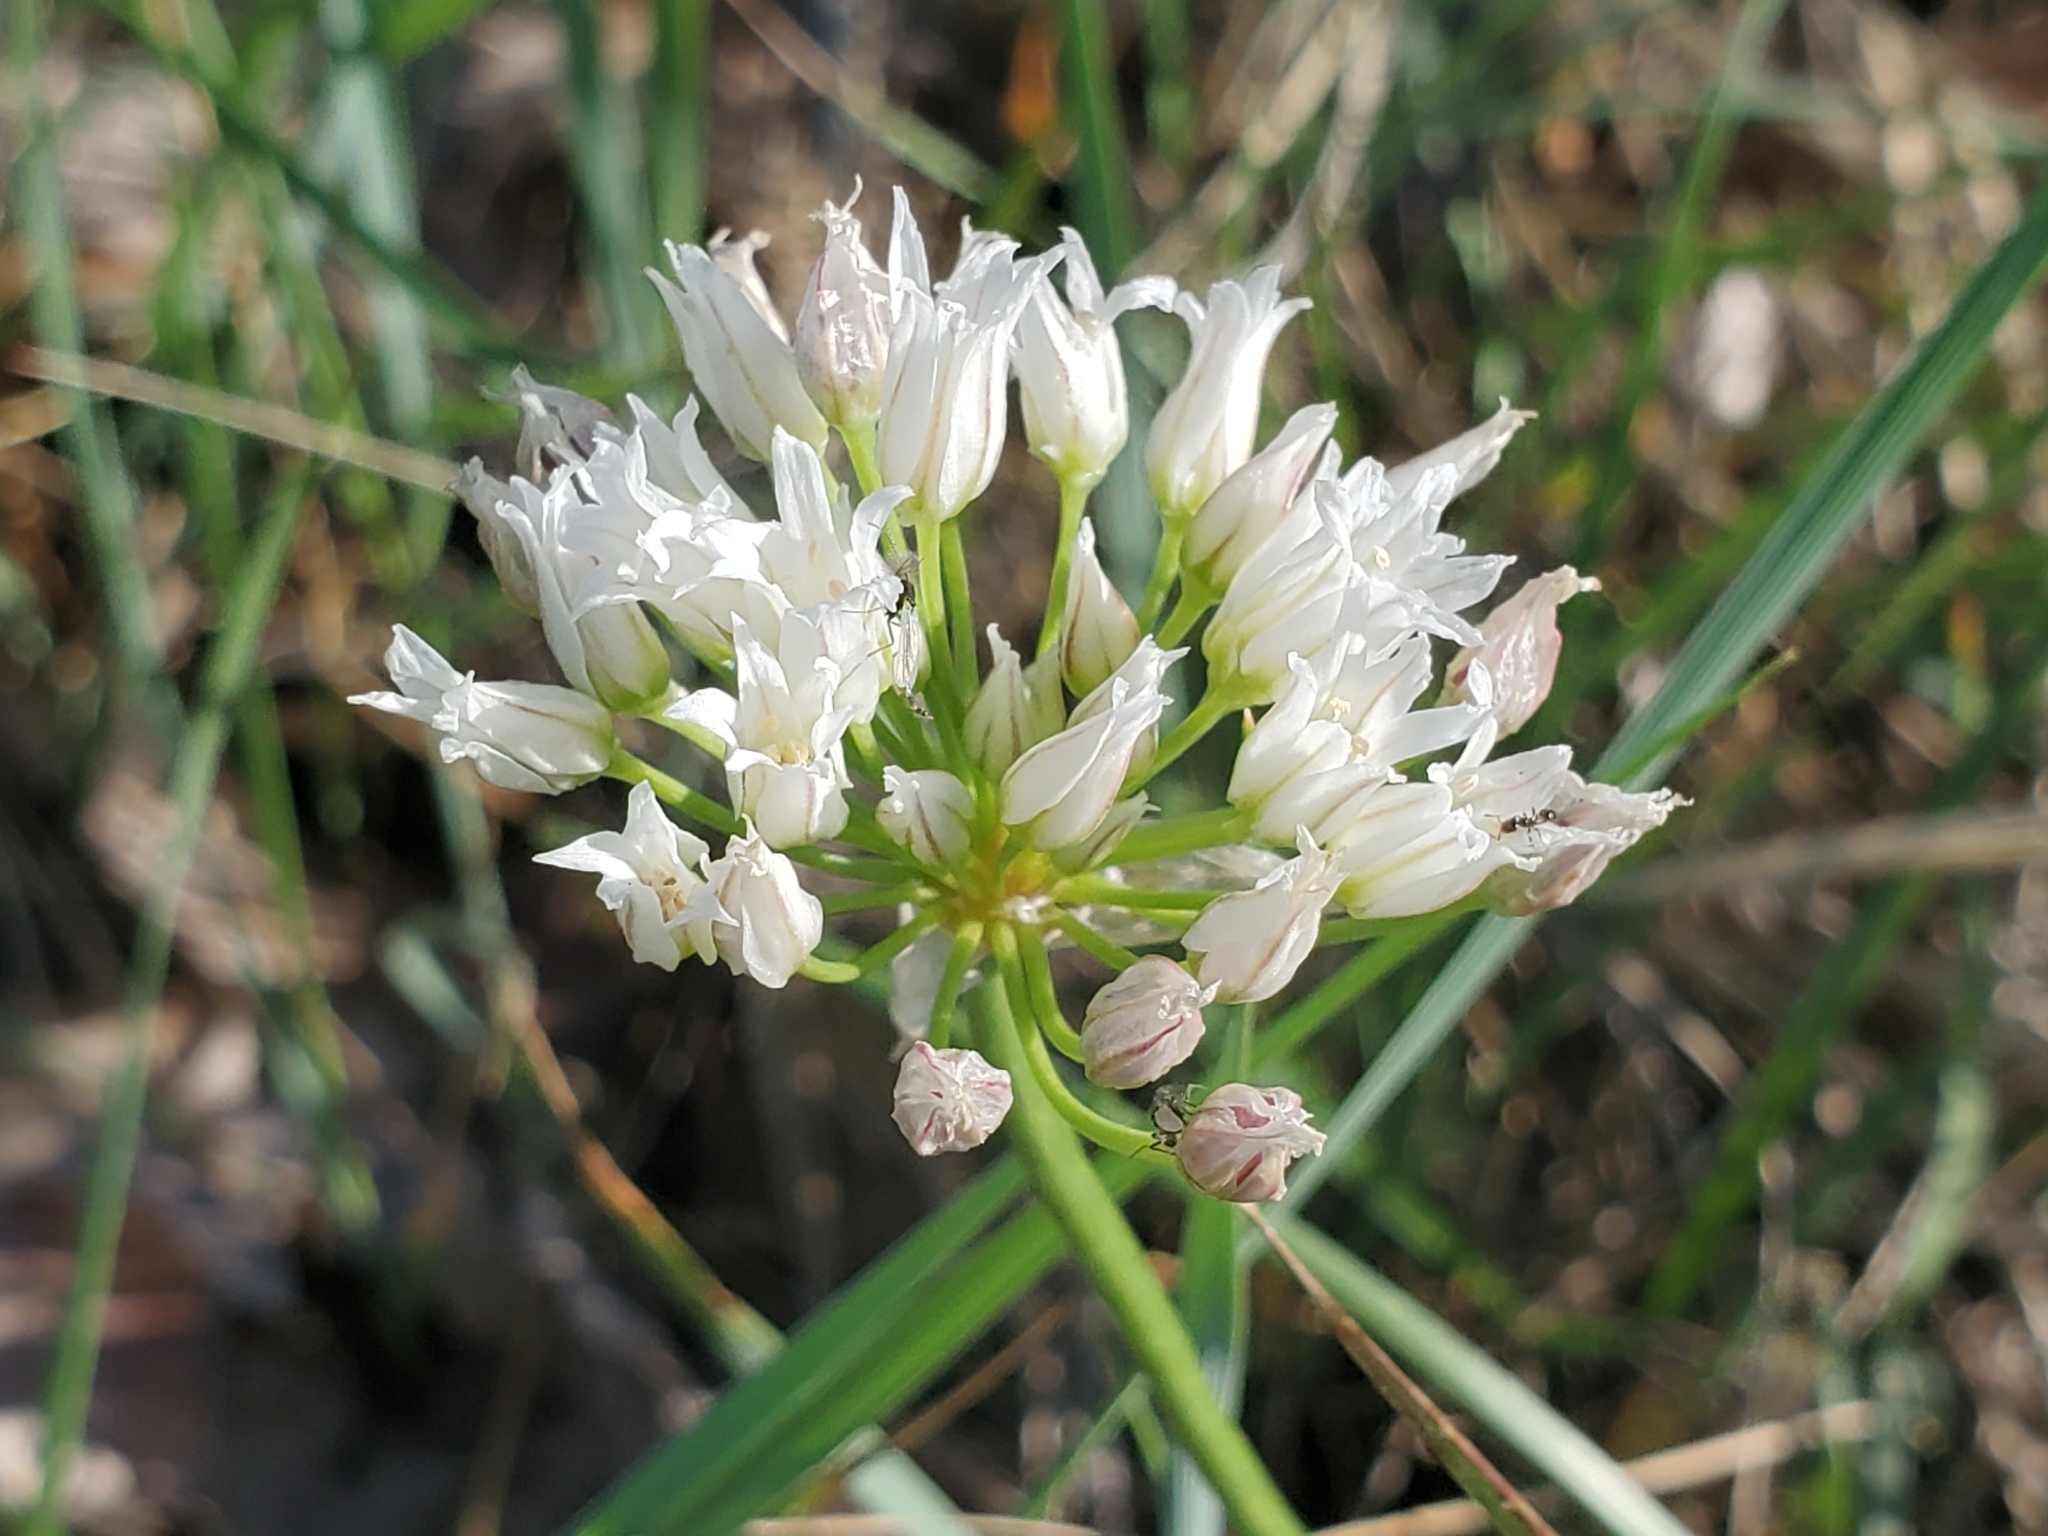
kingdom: Plantae
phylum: Tracheophyta
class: Liliopsida
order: Asparagales
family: Amaryllidaceae
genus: Allium
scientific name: Allium textile
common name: Prairie onion
